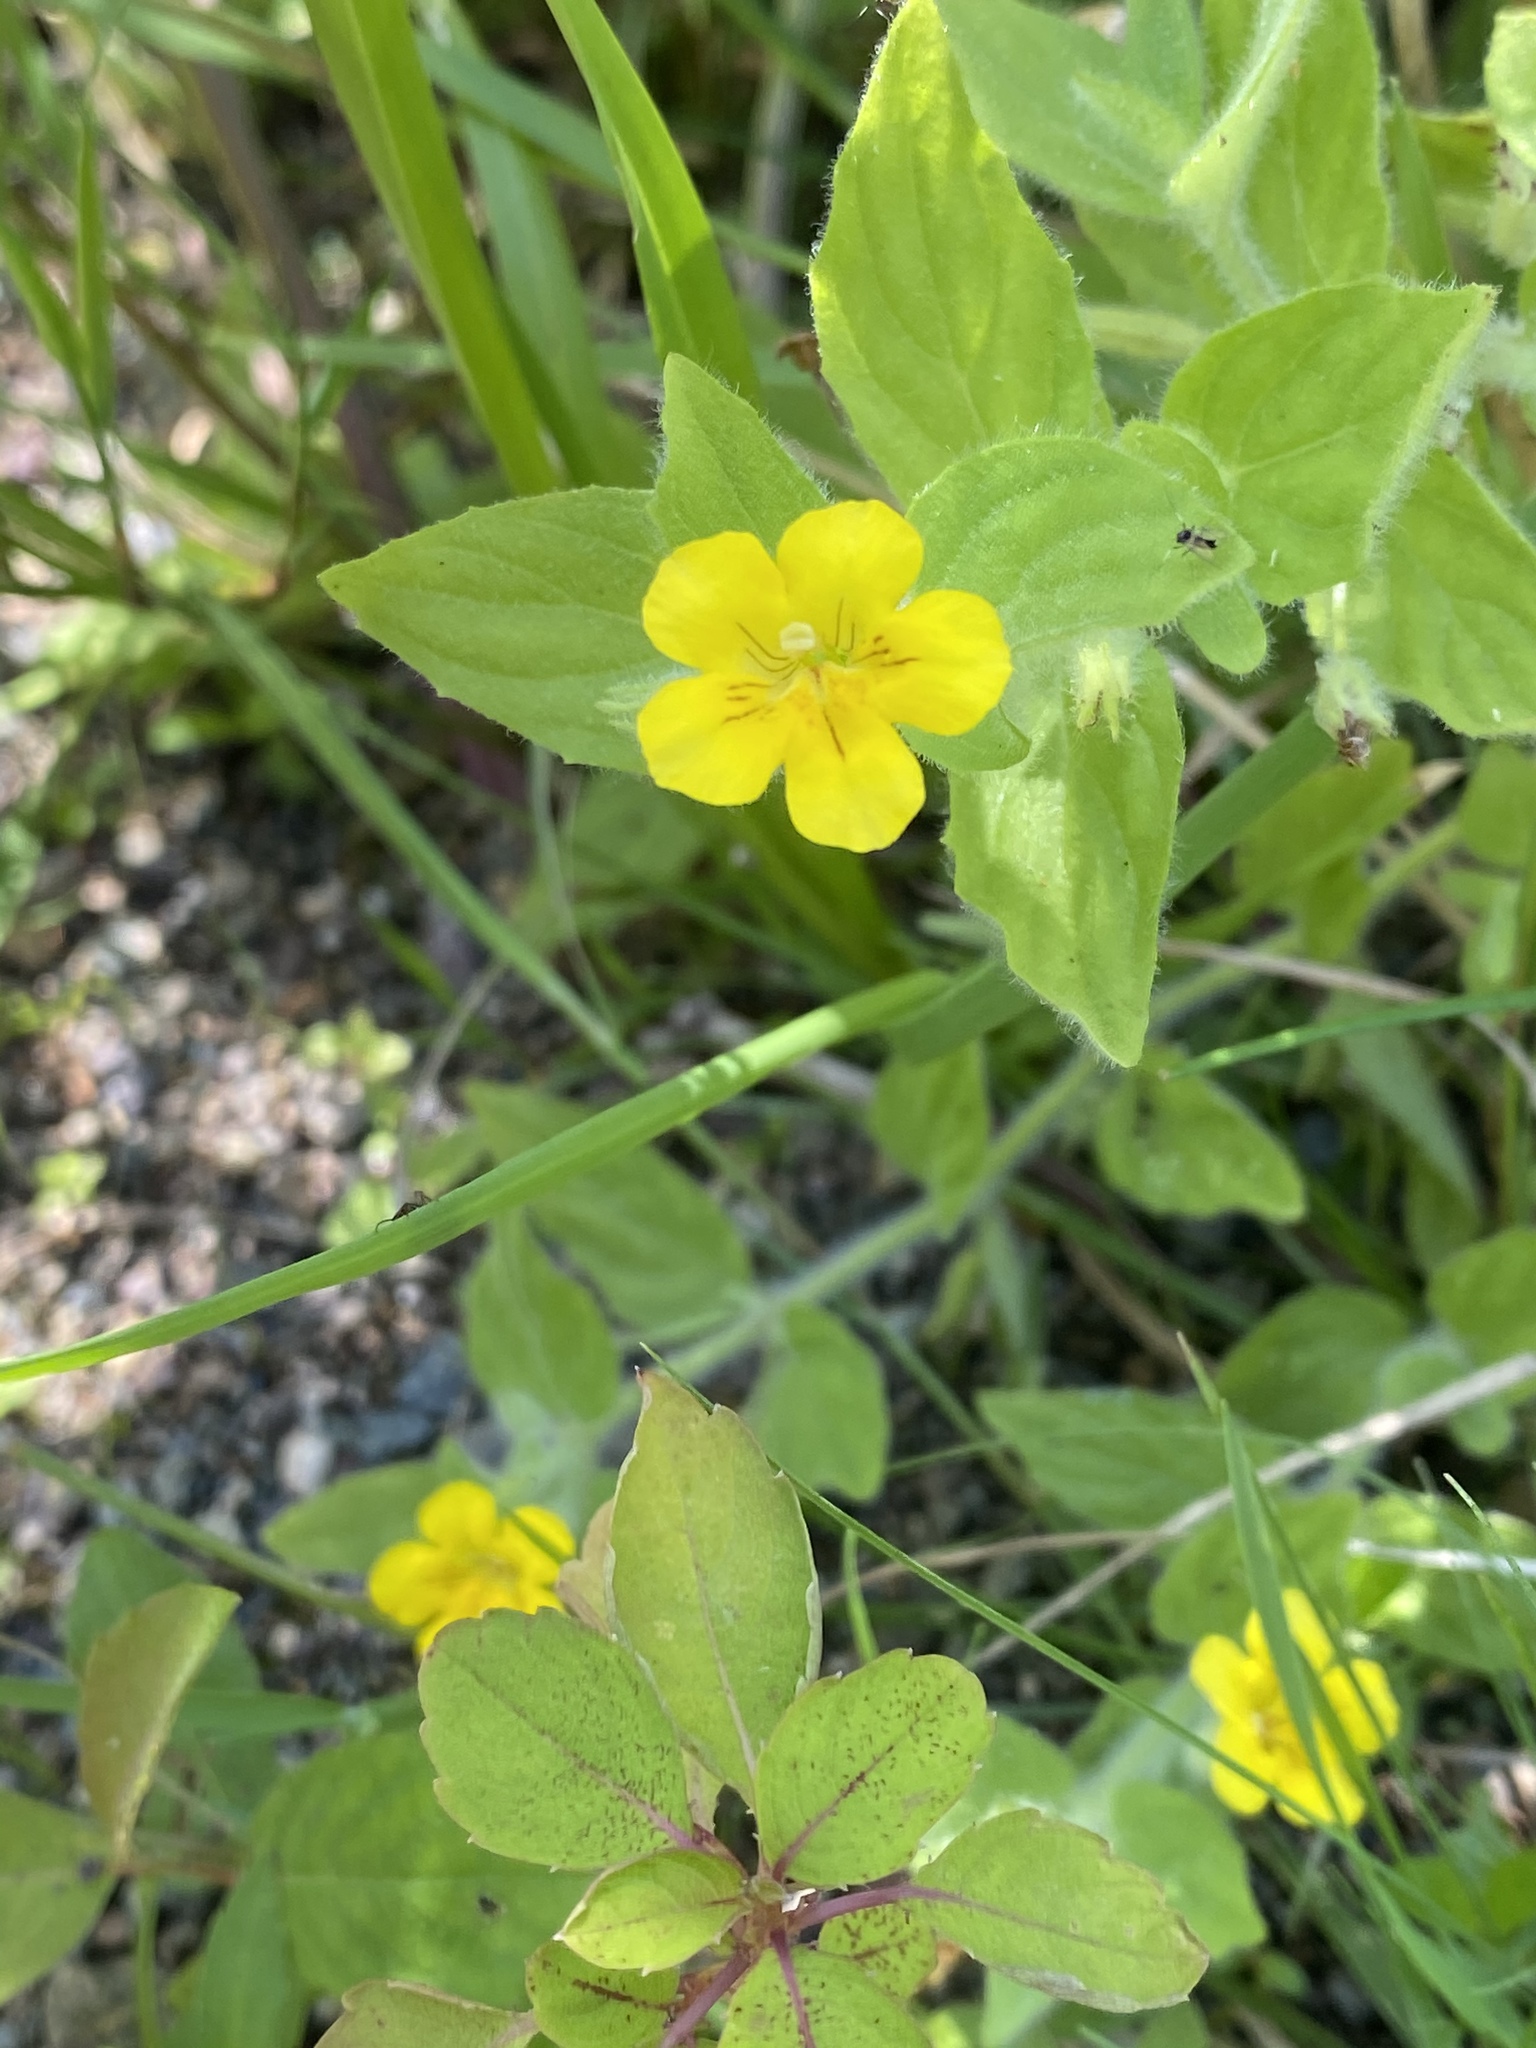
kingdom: Plantae
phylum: Tracheophyta
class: Magnoliopsida
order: Lamiales
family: Phrymaceae
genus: Erythranthe
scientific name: Erythranthe moschata
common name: Muskflower
